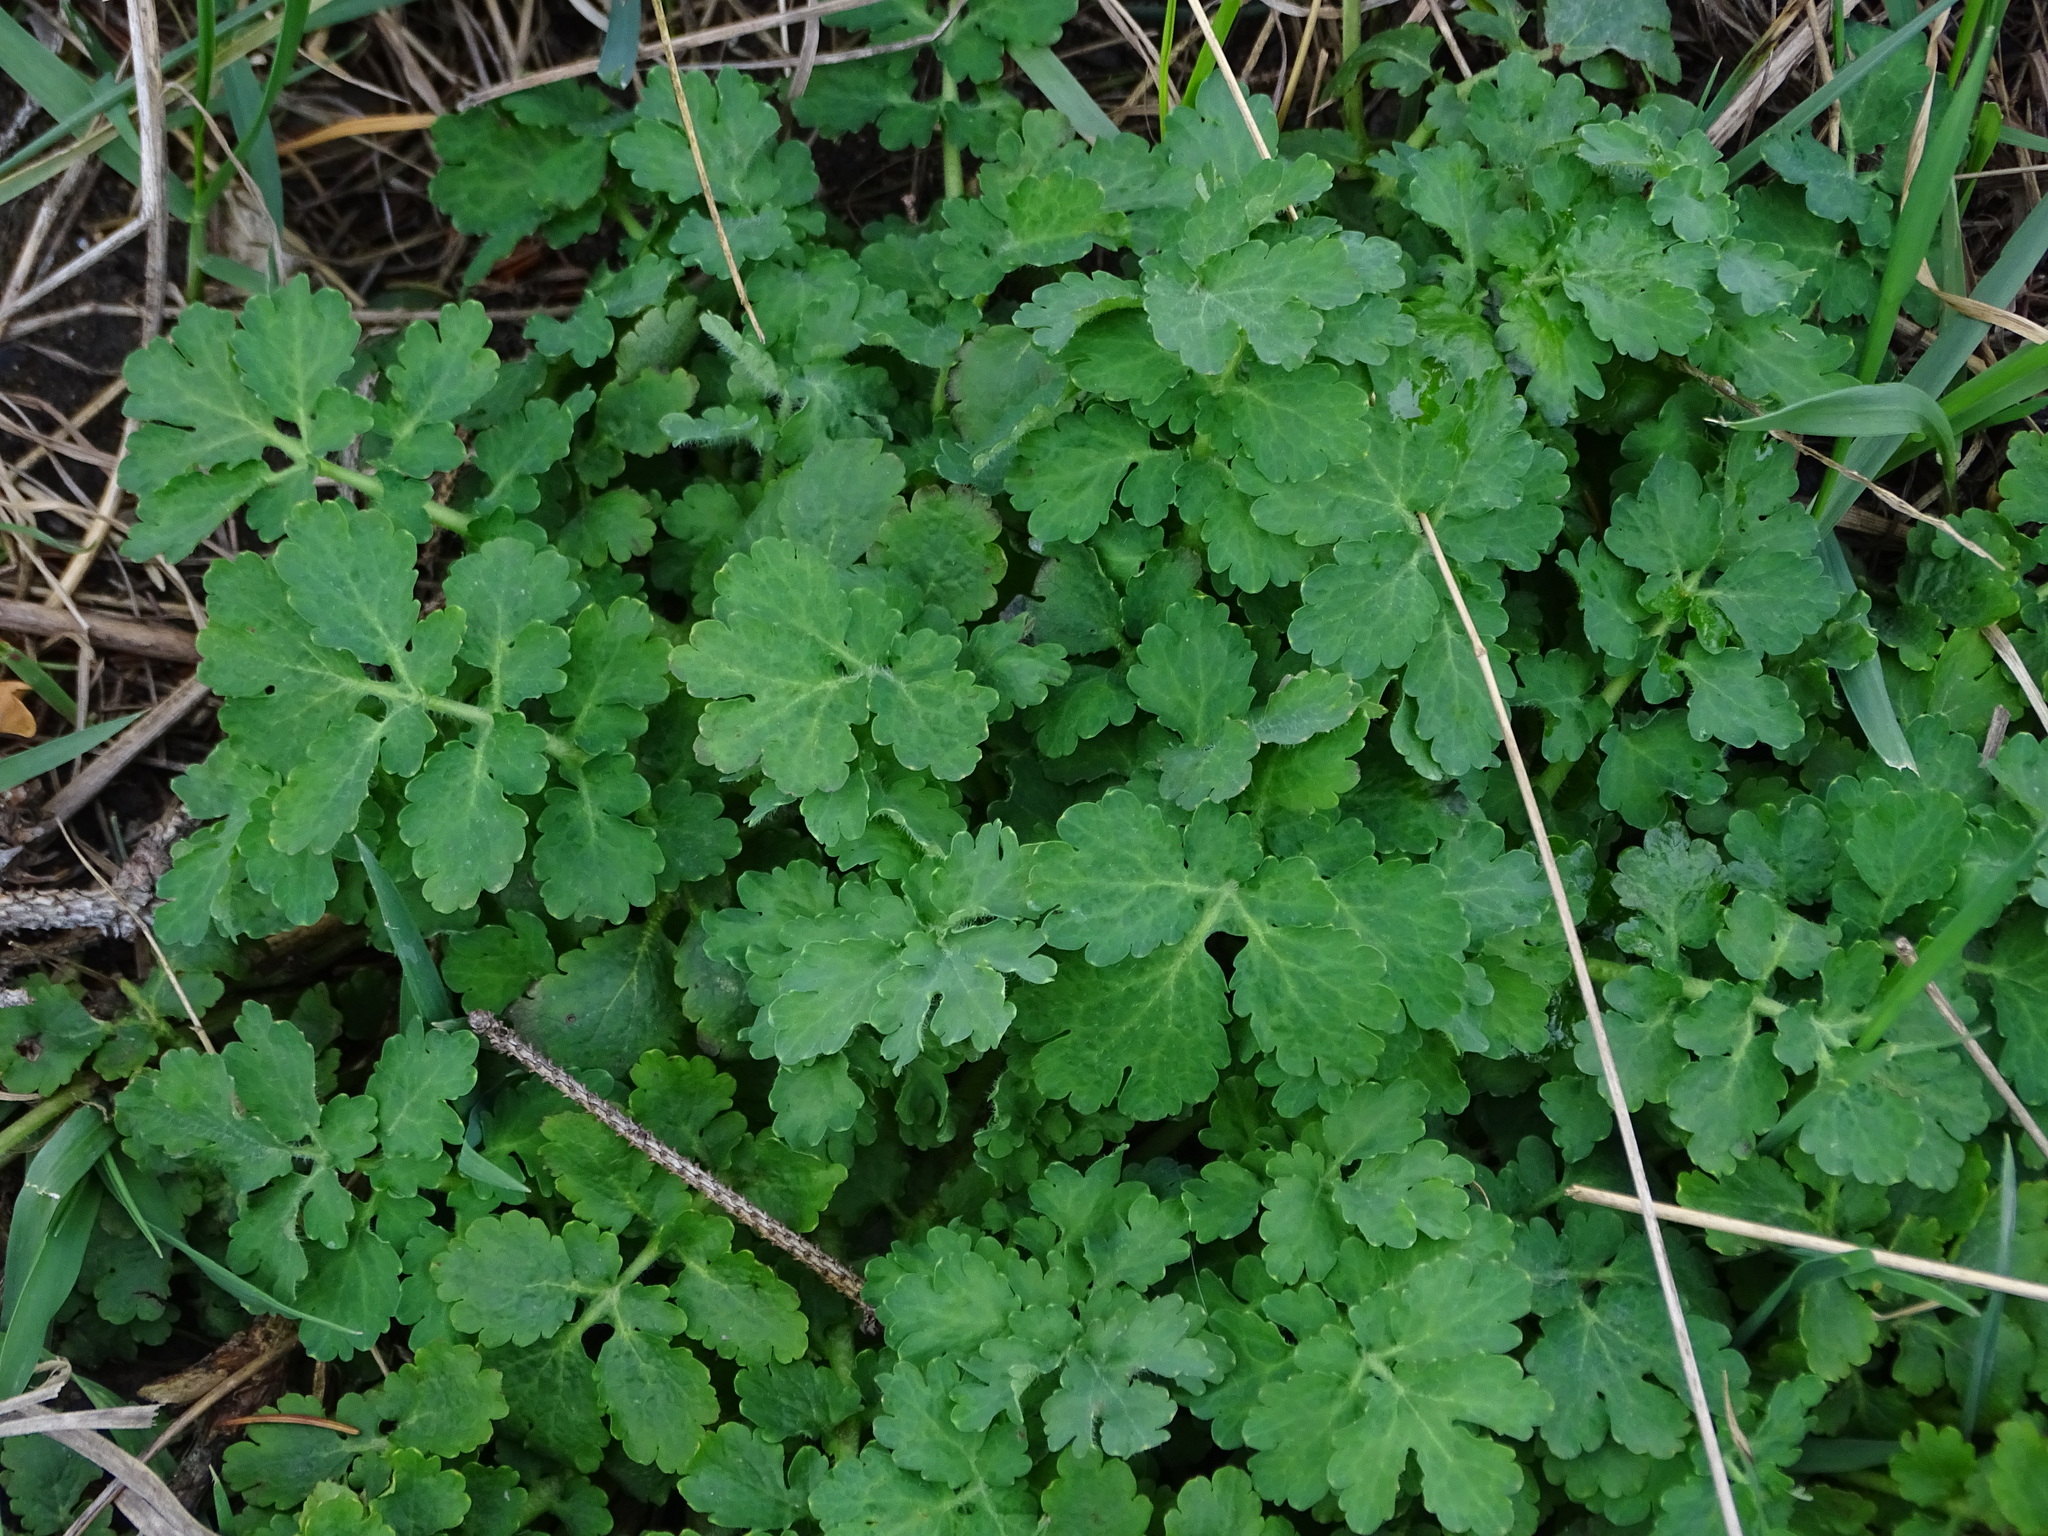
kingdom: Plantae
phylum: Tracheophyta
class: Magnoliopsida
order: Ranunculales
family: Papaveraceae
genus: Chelidonium
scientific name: Chelidonium majus
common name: Greater celandine
